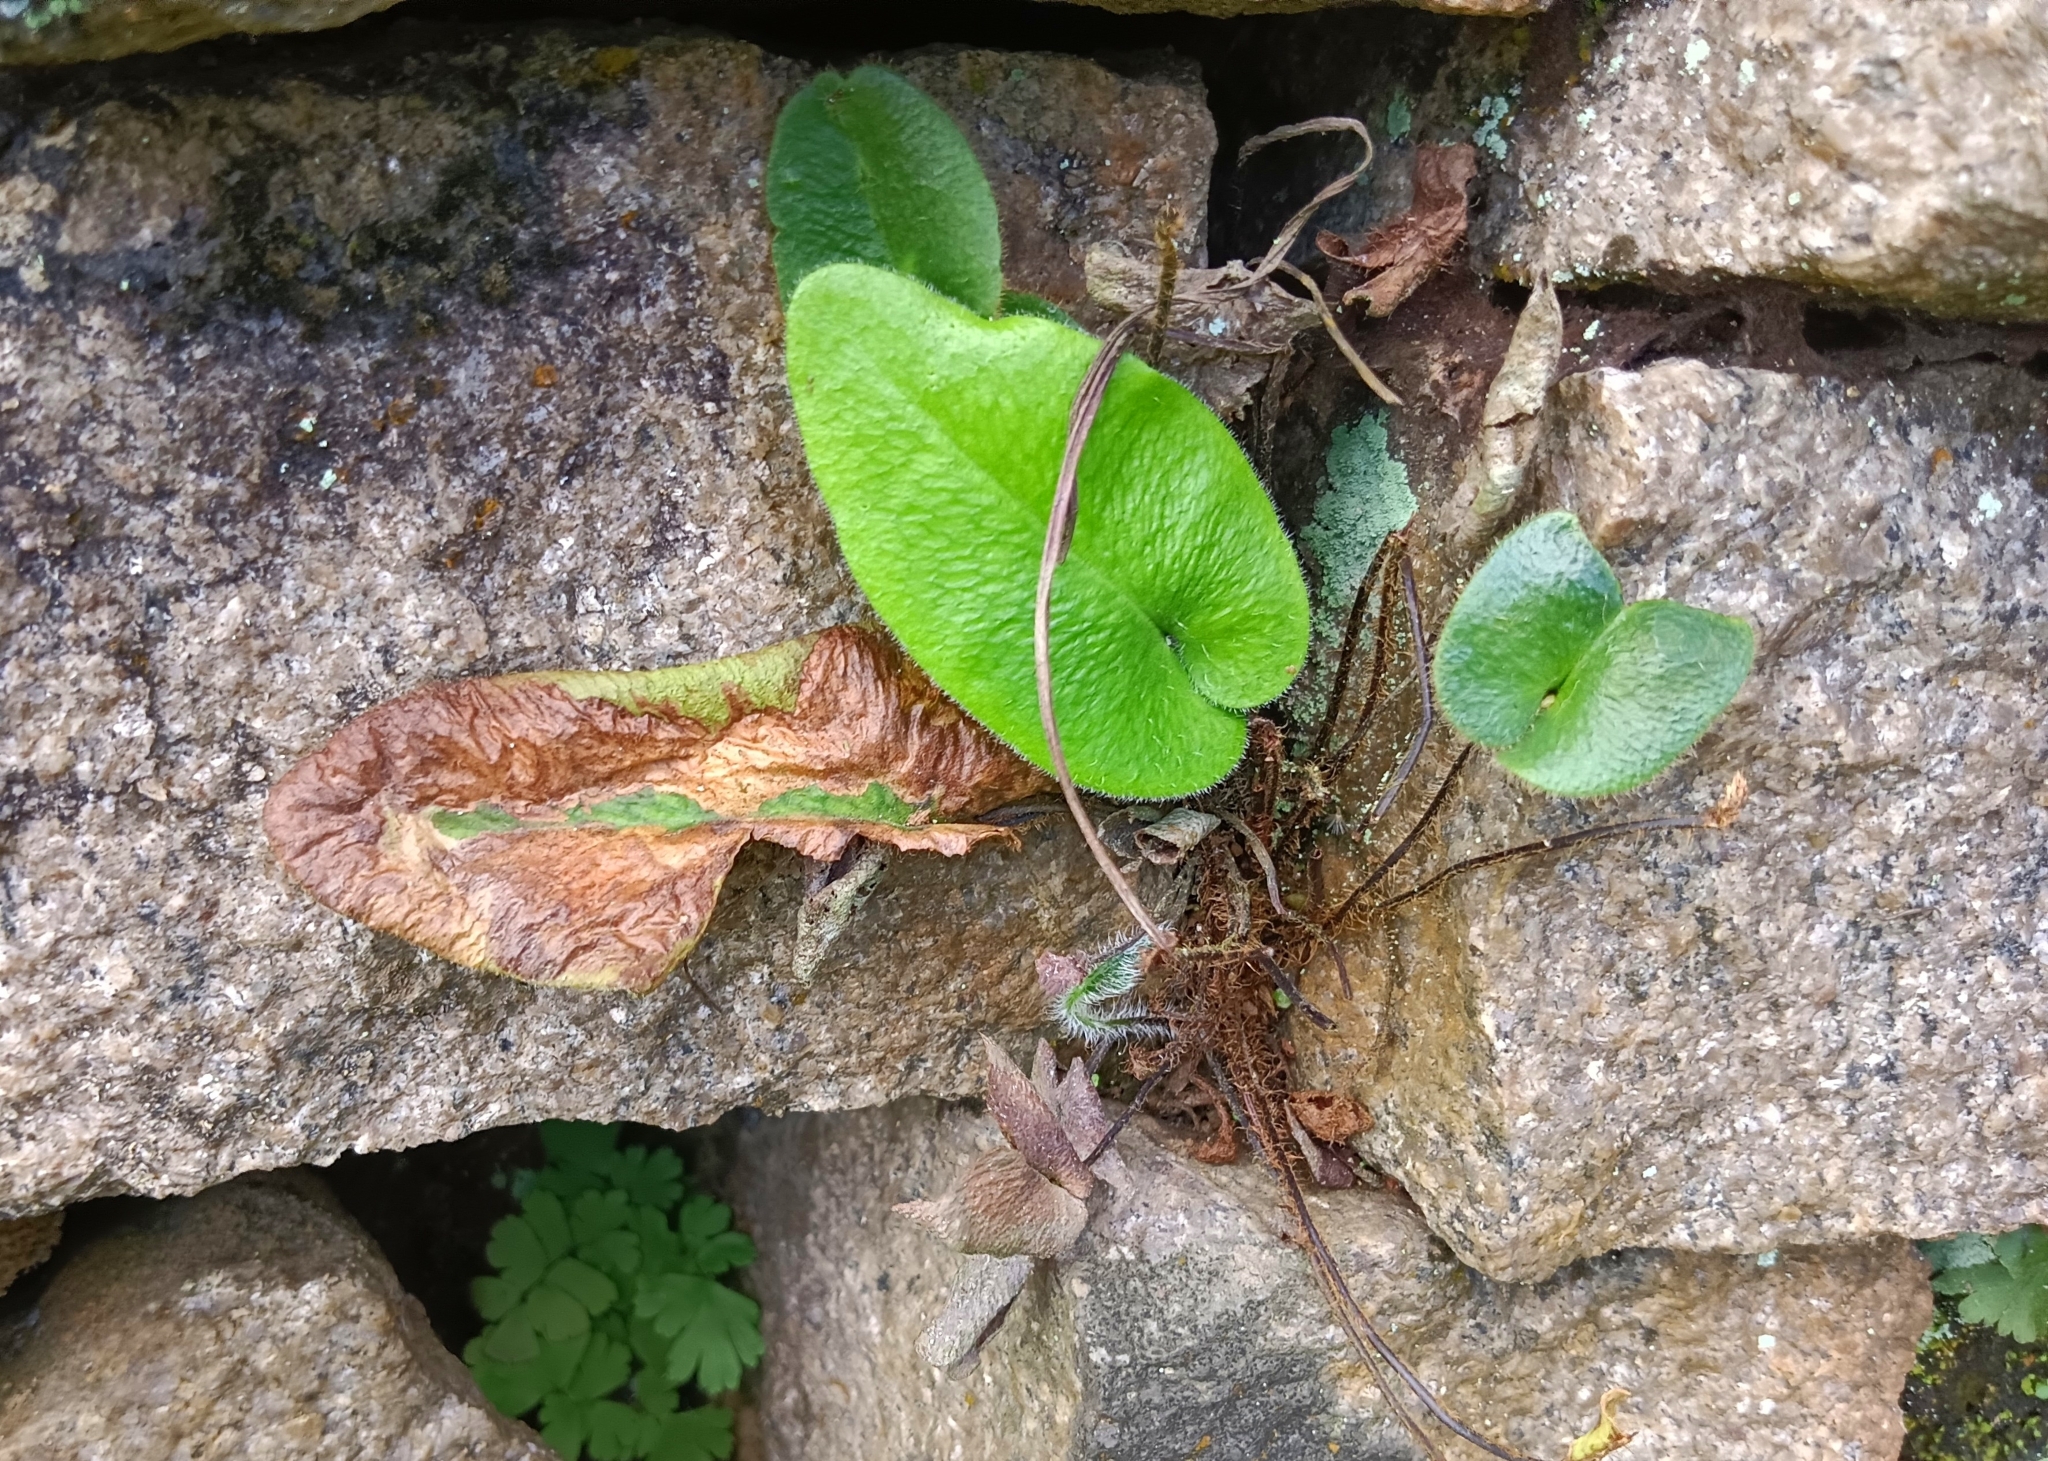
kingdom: Plantae
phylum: Tracheophyta
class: Polypodiopsida
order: Polypodiales
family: Pteridaceae
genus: Mickelopteris
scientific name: Mickelopteris cordata
